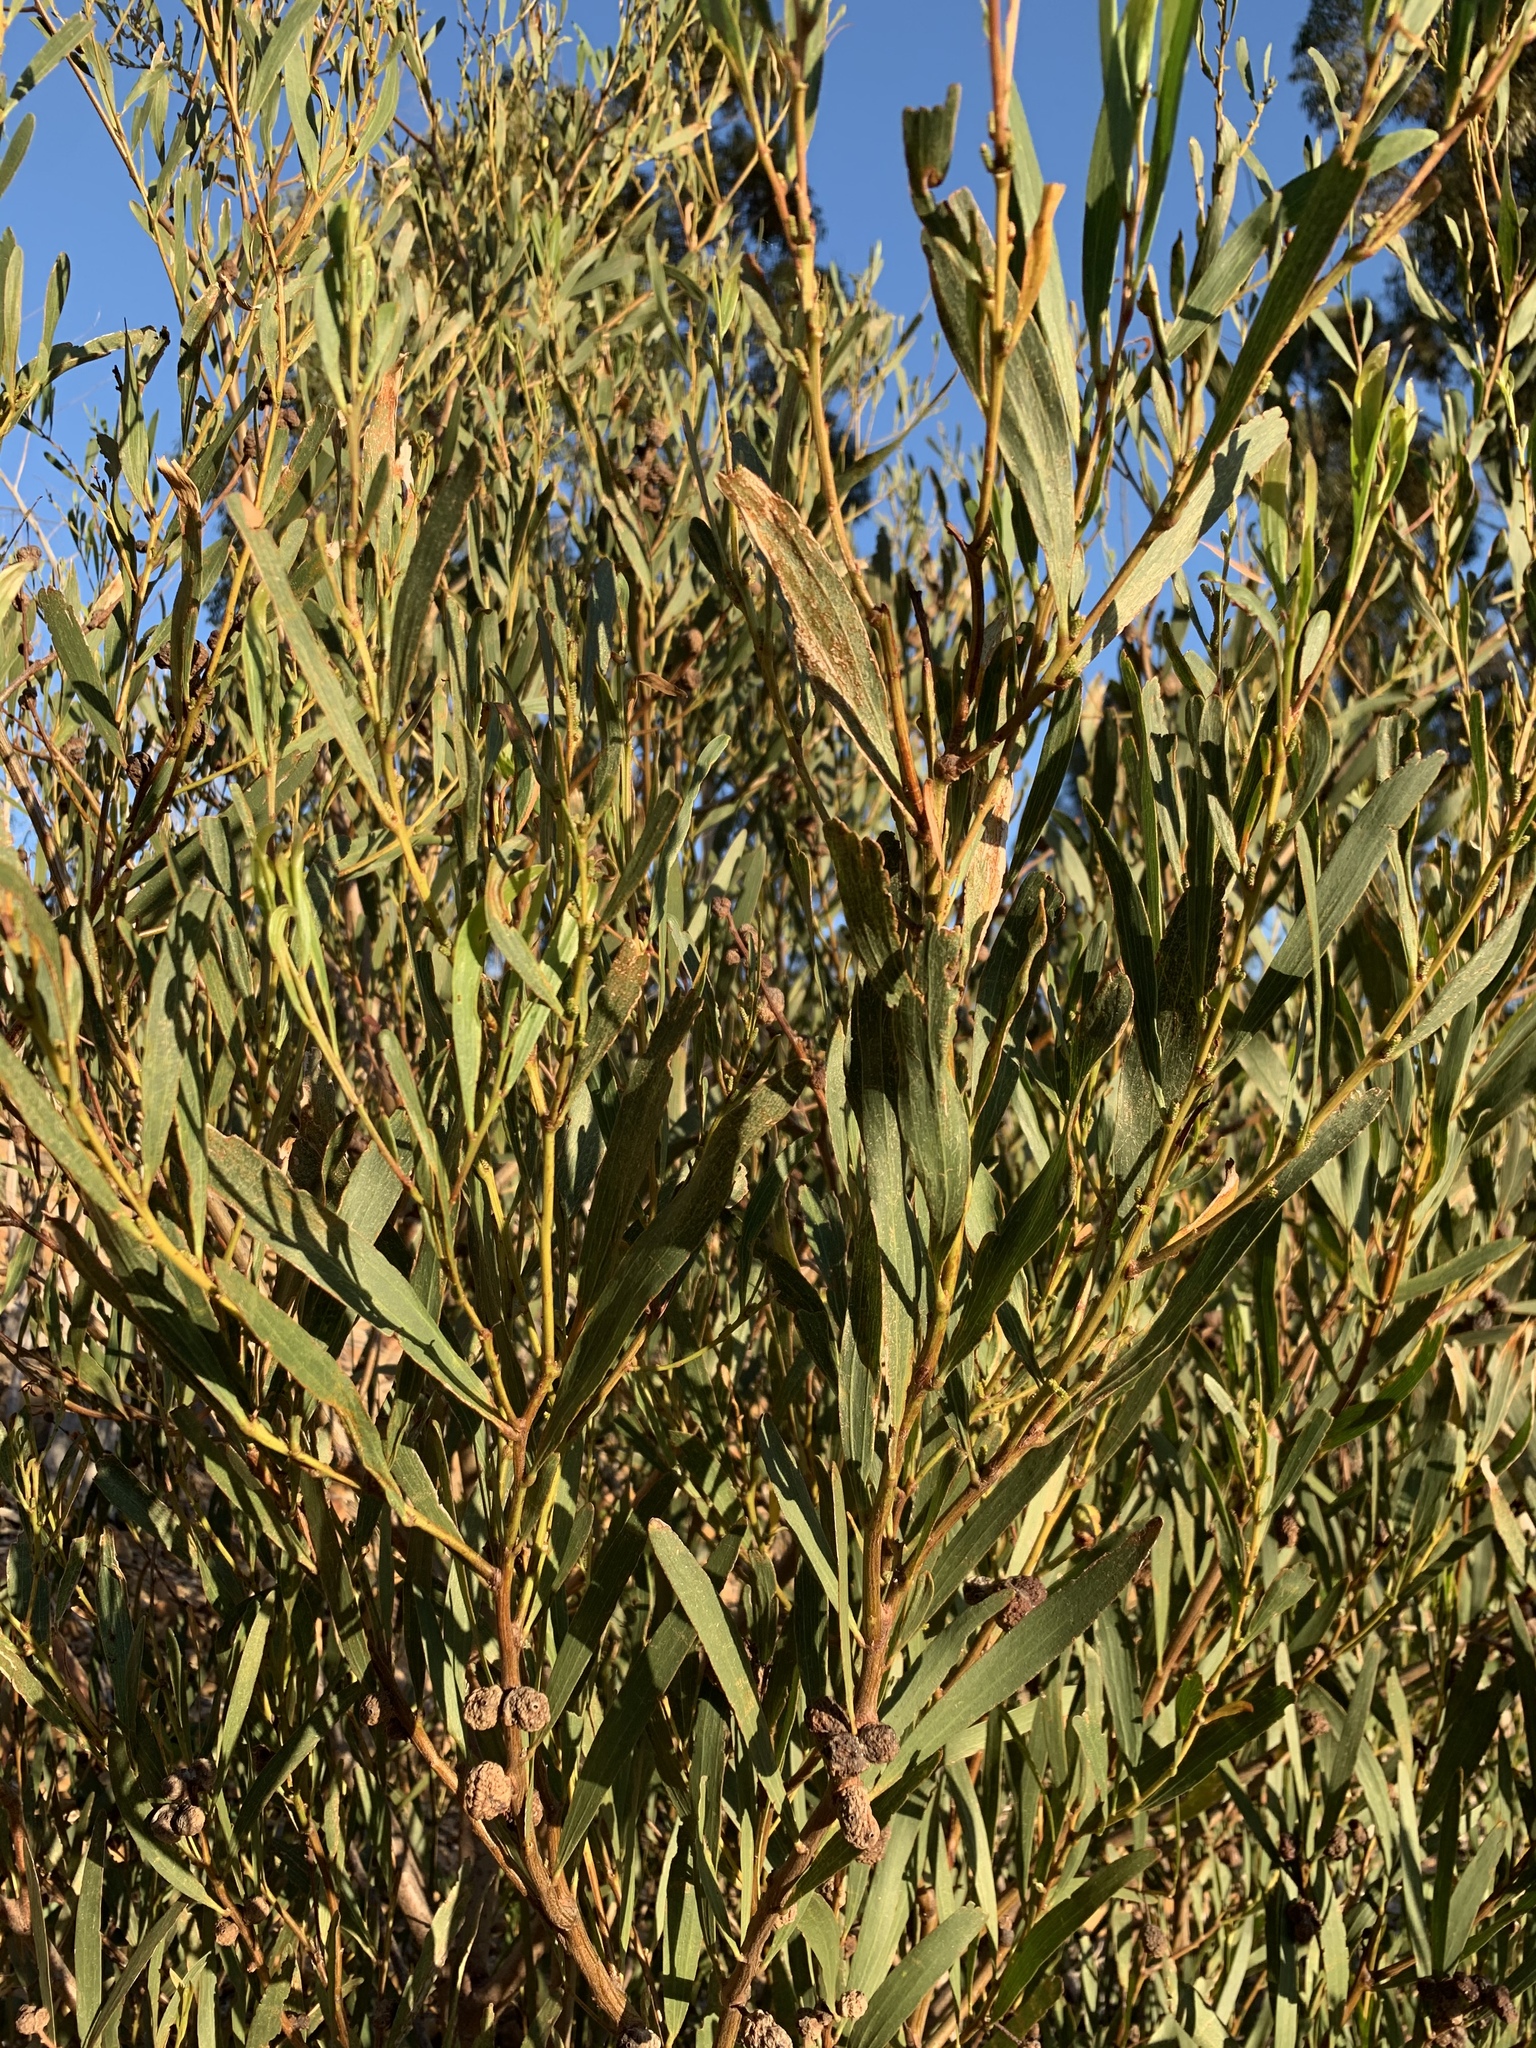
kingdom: Plantae
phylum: Tracheophyta
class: Magnoliopsida
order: Fabales
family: Fabaceae
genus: Acacia
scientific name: Acacia longifolia
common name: Sydney golden wattle
